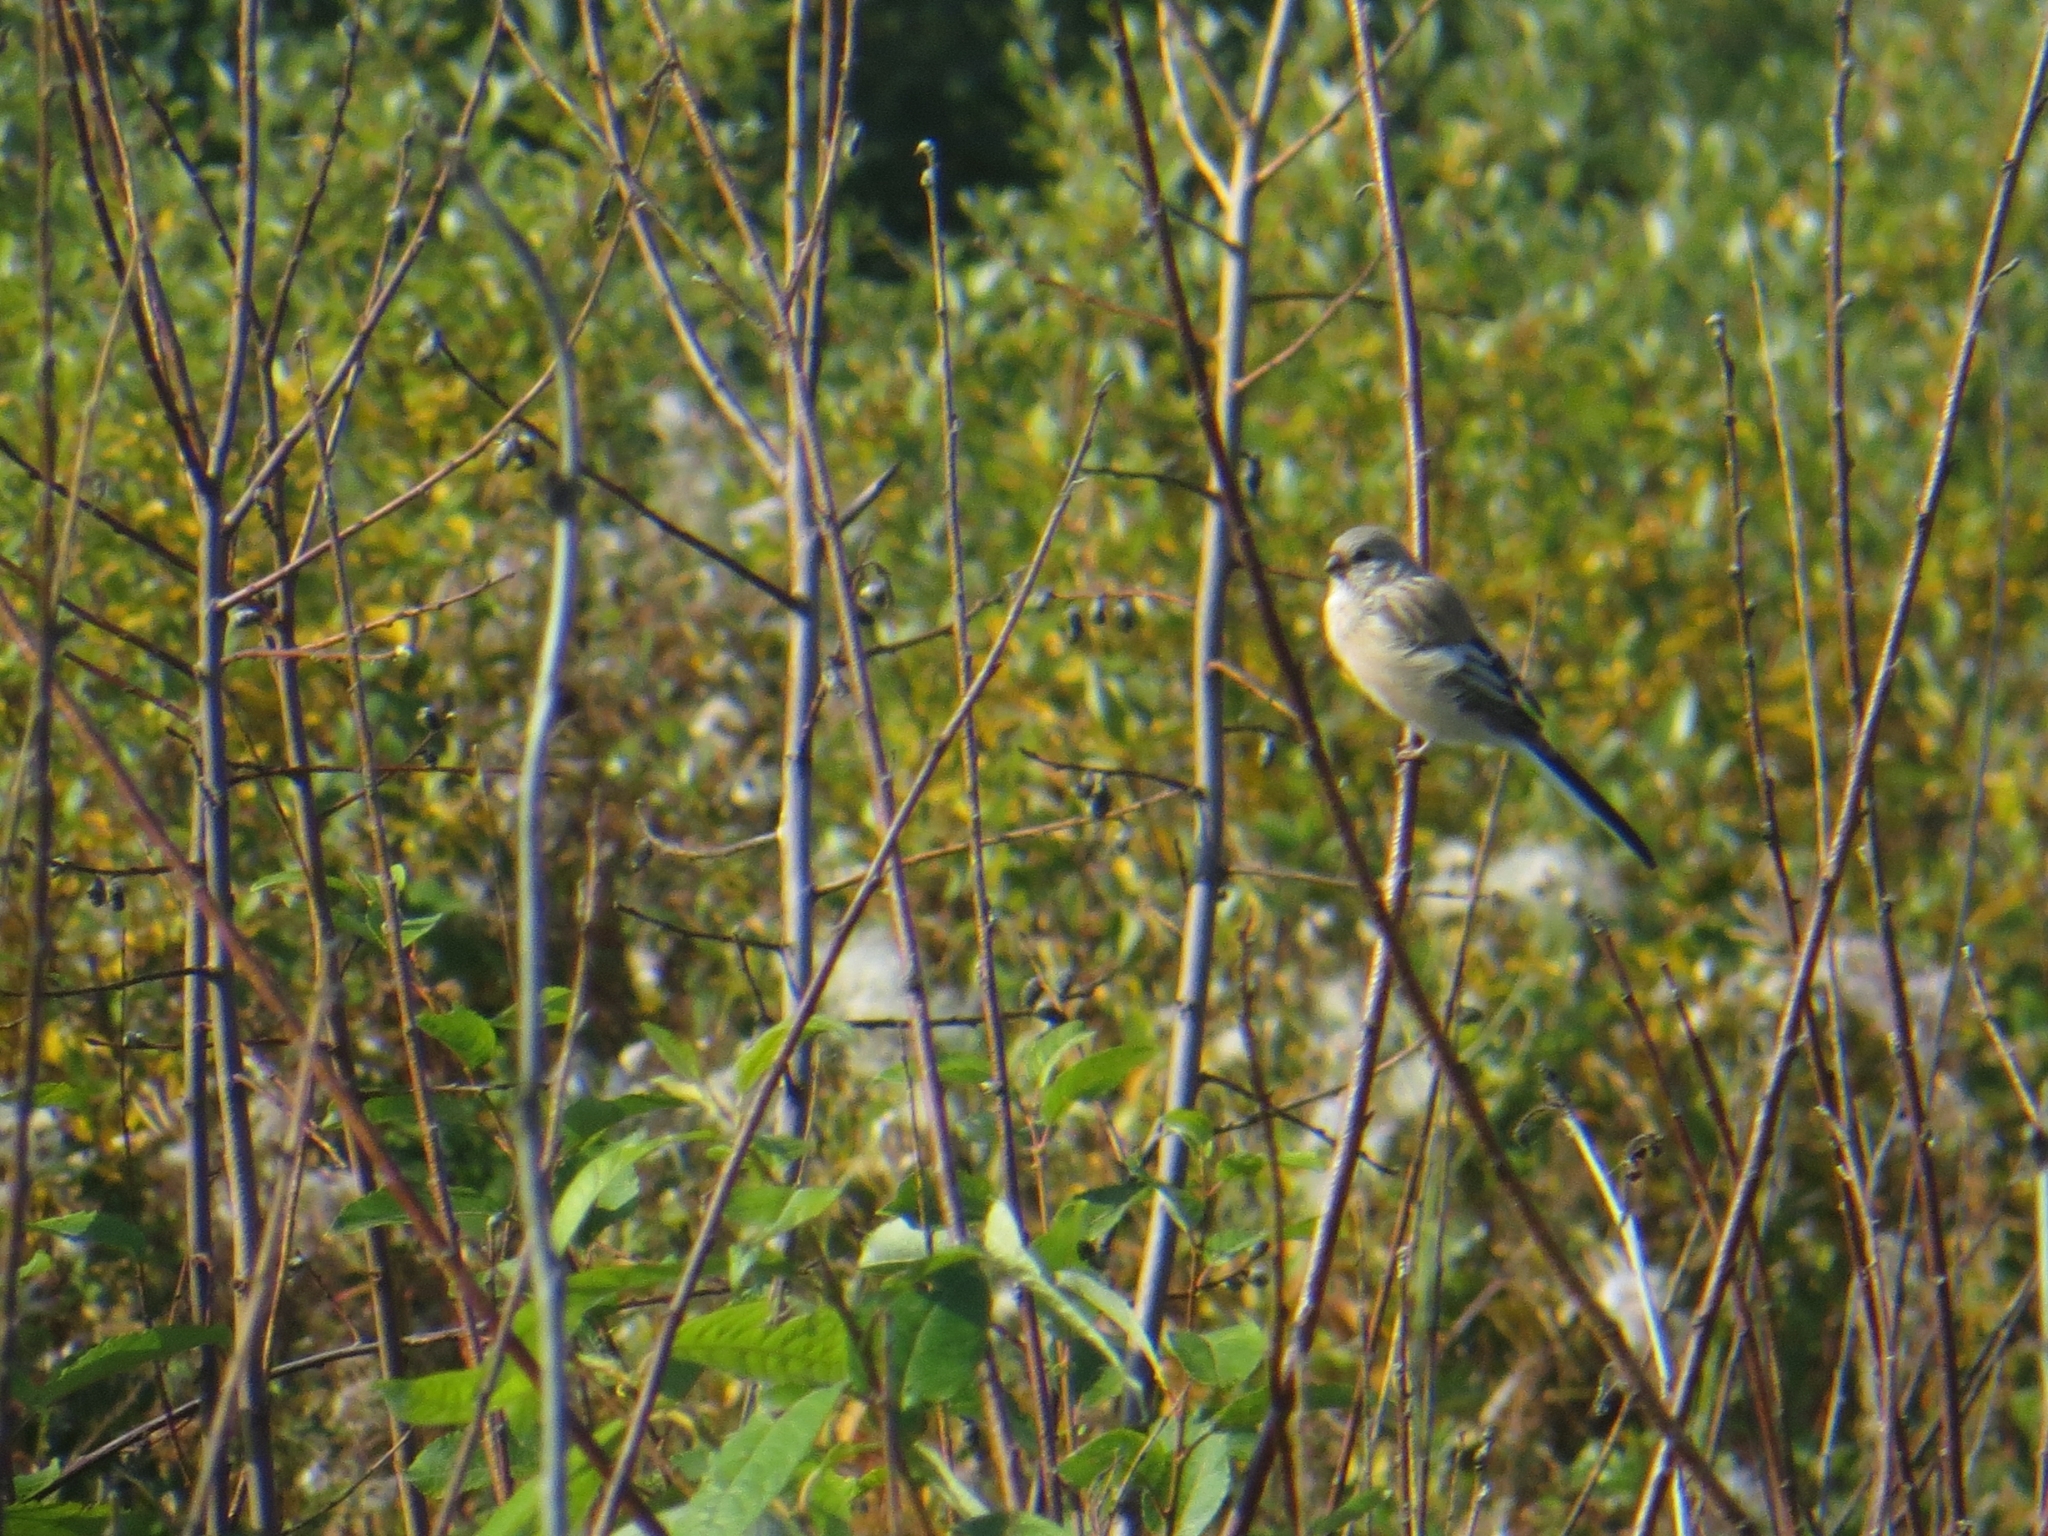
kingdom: Animalia
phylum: Chordata
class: Aves
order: Passeriformes
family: Fringillidae
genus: Carpodacus
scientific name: Carpodacus sibiricus
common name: Long-tailed rosefinch
